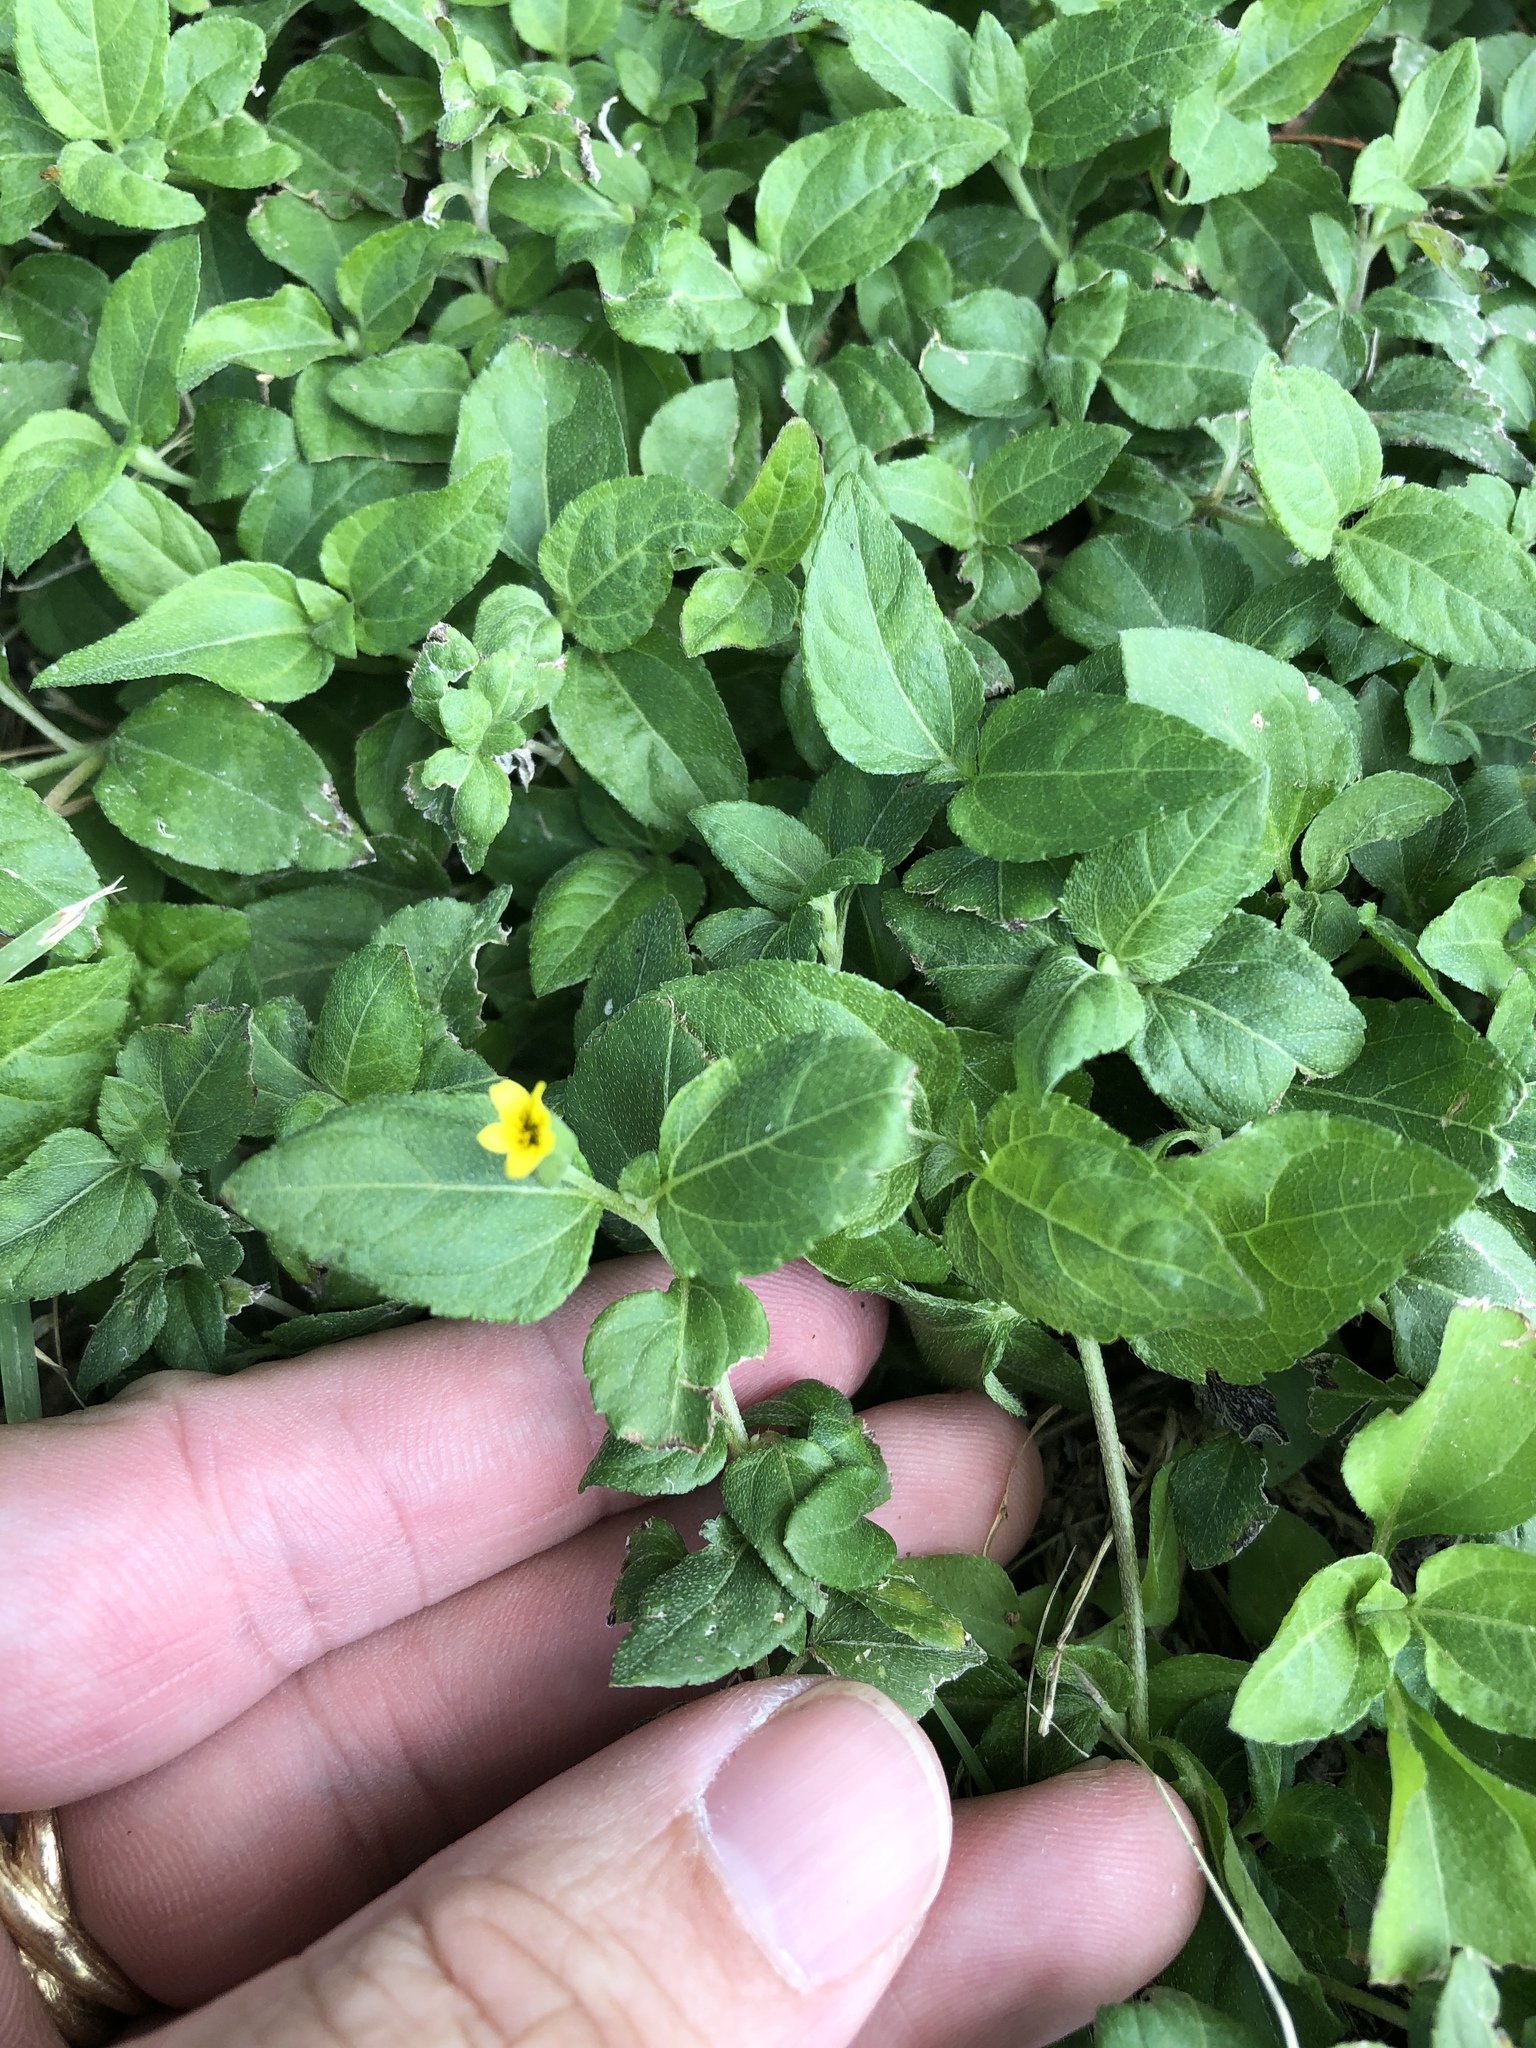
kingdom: Plantae
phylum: Tracheophyta
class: Magnoliopsida
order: Asterales
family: Asteraceae
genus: Calyptocarpus
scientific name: Calyptocarpus vialis
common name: Straggler daisy
